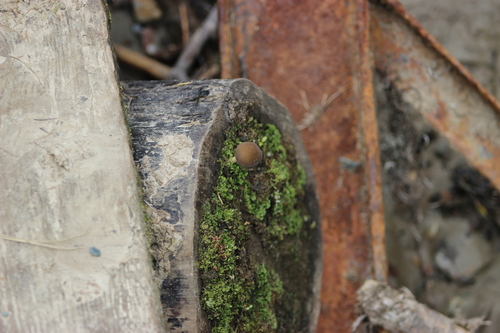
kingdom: Fungi
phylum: Basidiomycota
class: Agaricomycetes
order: Agaricales
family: Pluteaceae
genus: Pluteus
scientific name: Pluteus
